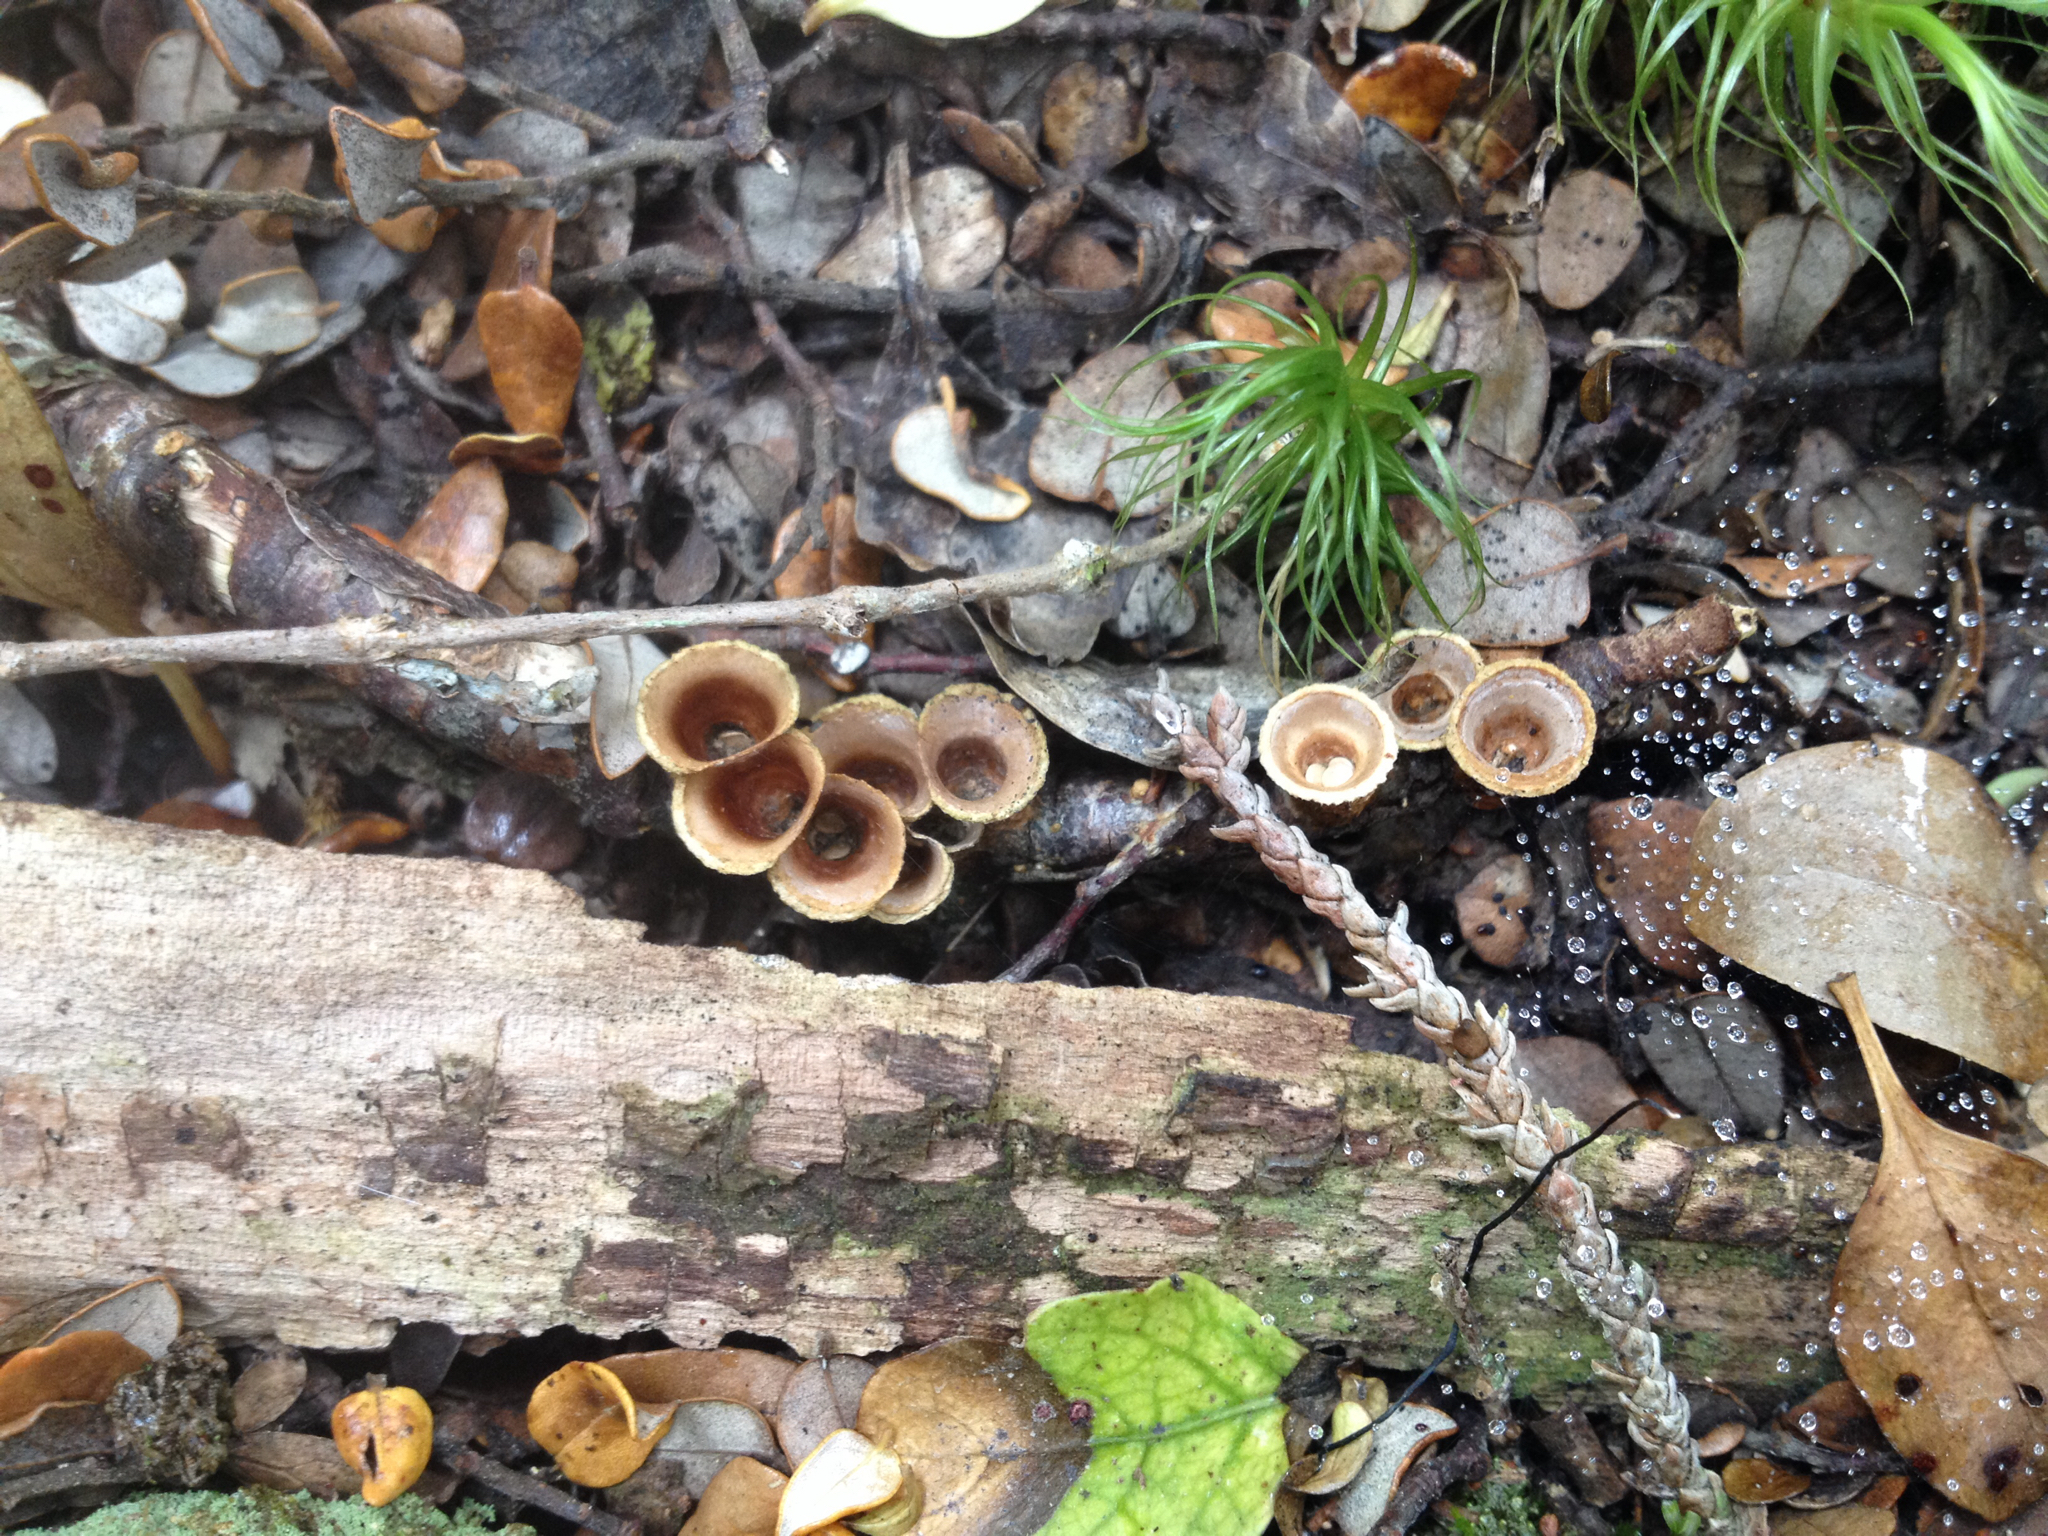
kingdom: Fungi
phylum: Basidiomycota
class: Agaricomycetes
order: Agaricales
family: Nidulariaceae
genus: Crucibulum
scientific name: Crucibulum simile
